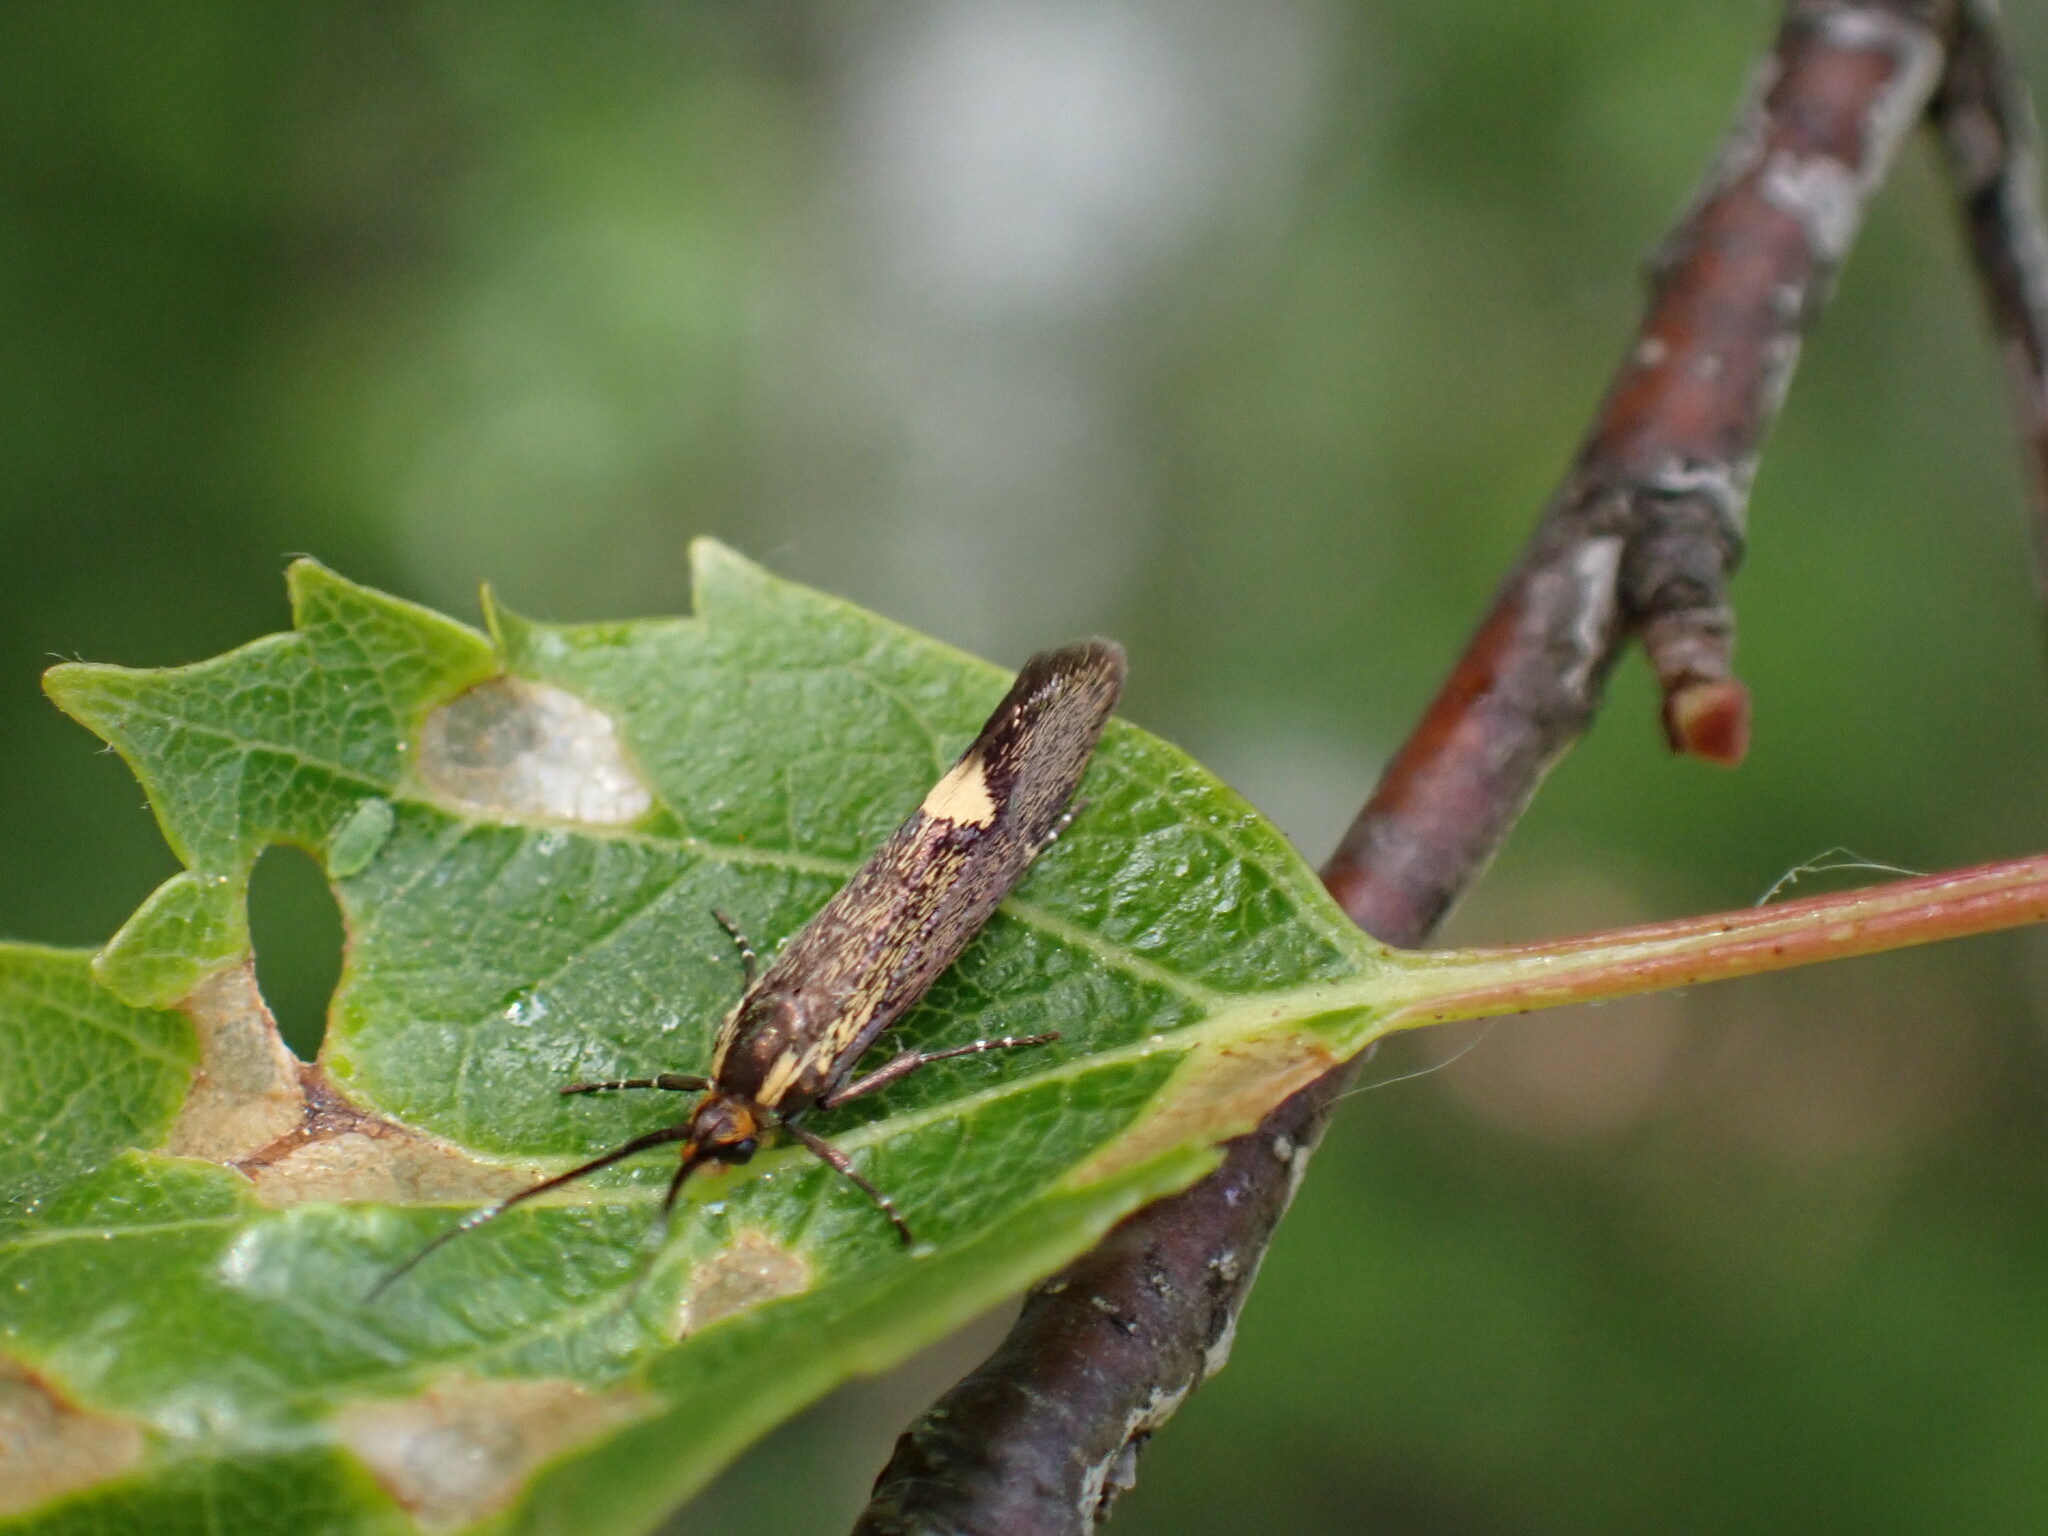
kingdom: Animalia
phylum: Arthropoda
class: Insecta
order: Lepidoptera
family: Oecophoridae
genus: Dafa
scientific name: Dafa Esperia sulphurella
